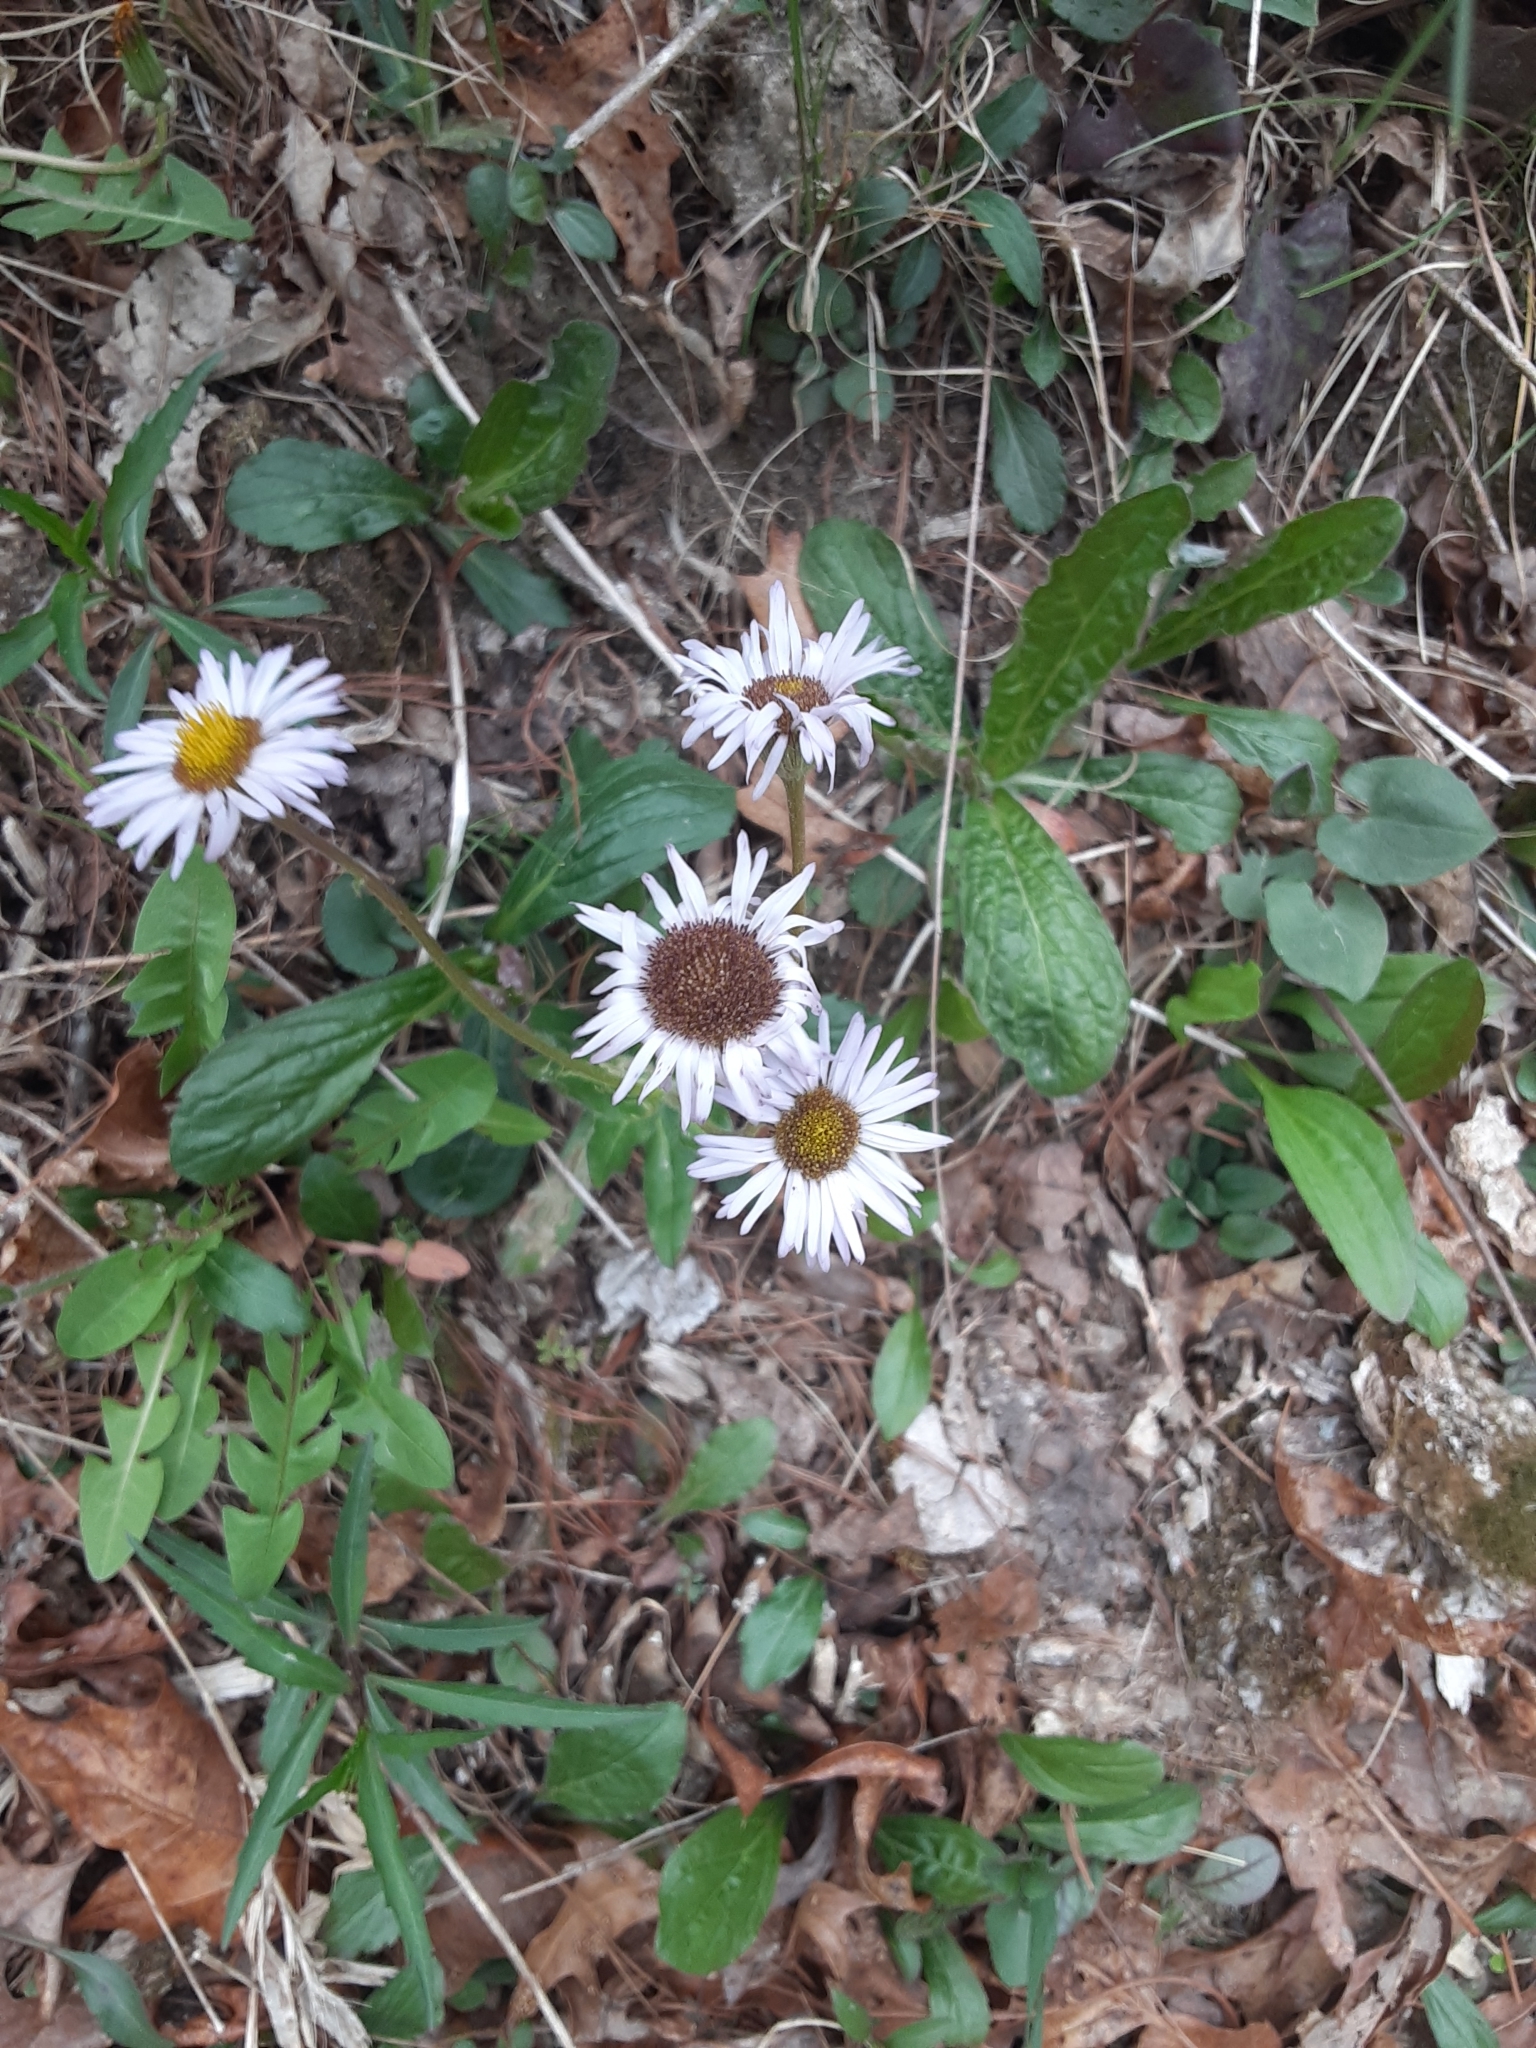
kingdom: Plantae
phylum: Tracheophyta
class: Magnoliopsida
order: Asterales
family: Asteraceae
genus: Erigeron
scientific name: Erigeron pulchellus
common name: Hairy fleabane
